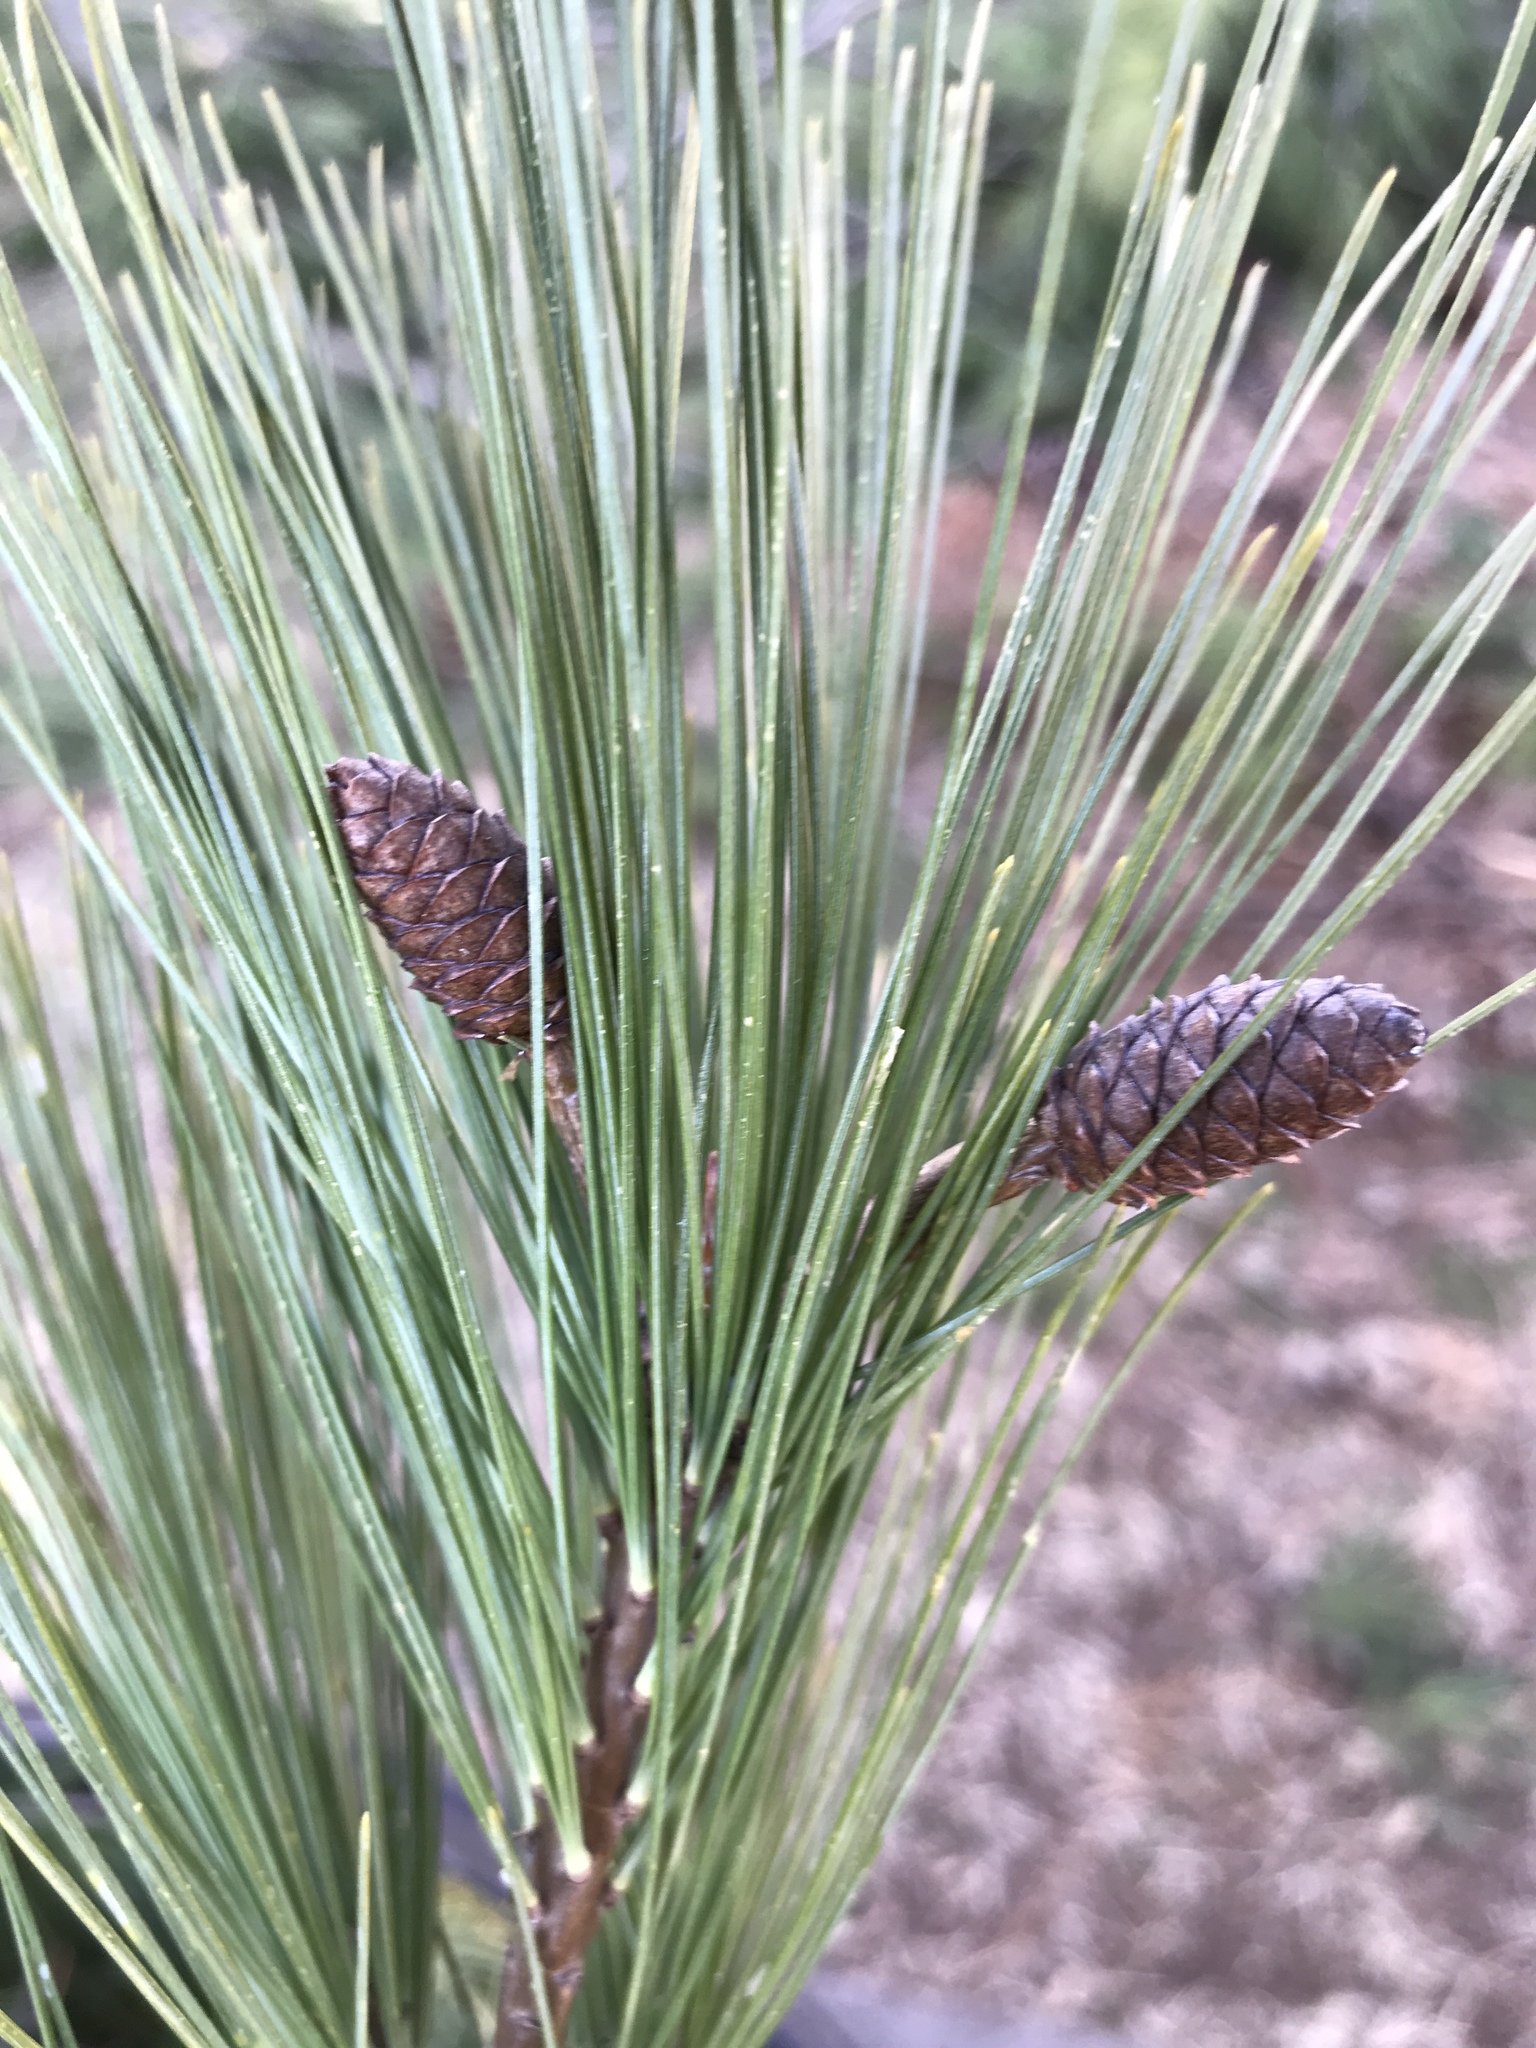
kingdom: Plantae
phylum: Tracheophyta
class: Pinopsida
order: Pinales
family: Pinaceae
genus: Pinus
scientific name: Pinus strobus
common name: Weymouth pine
